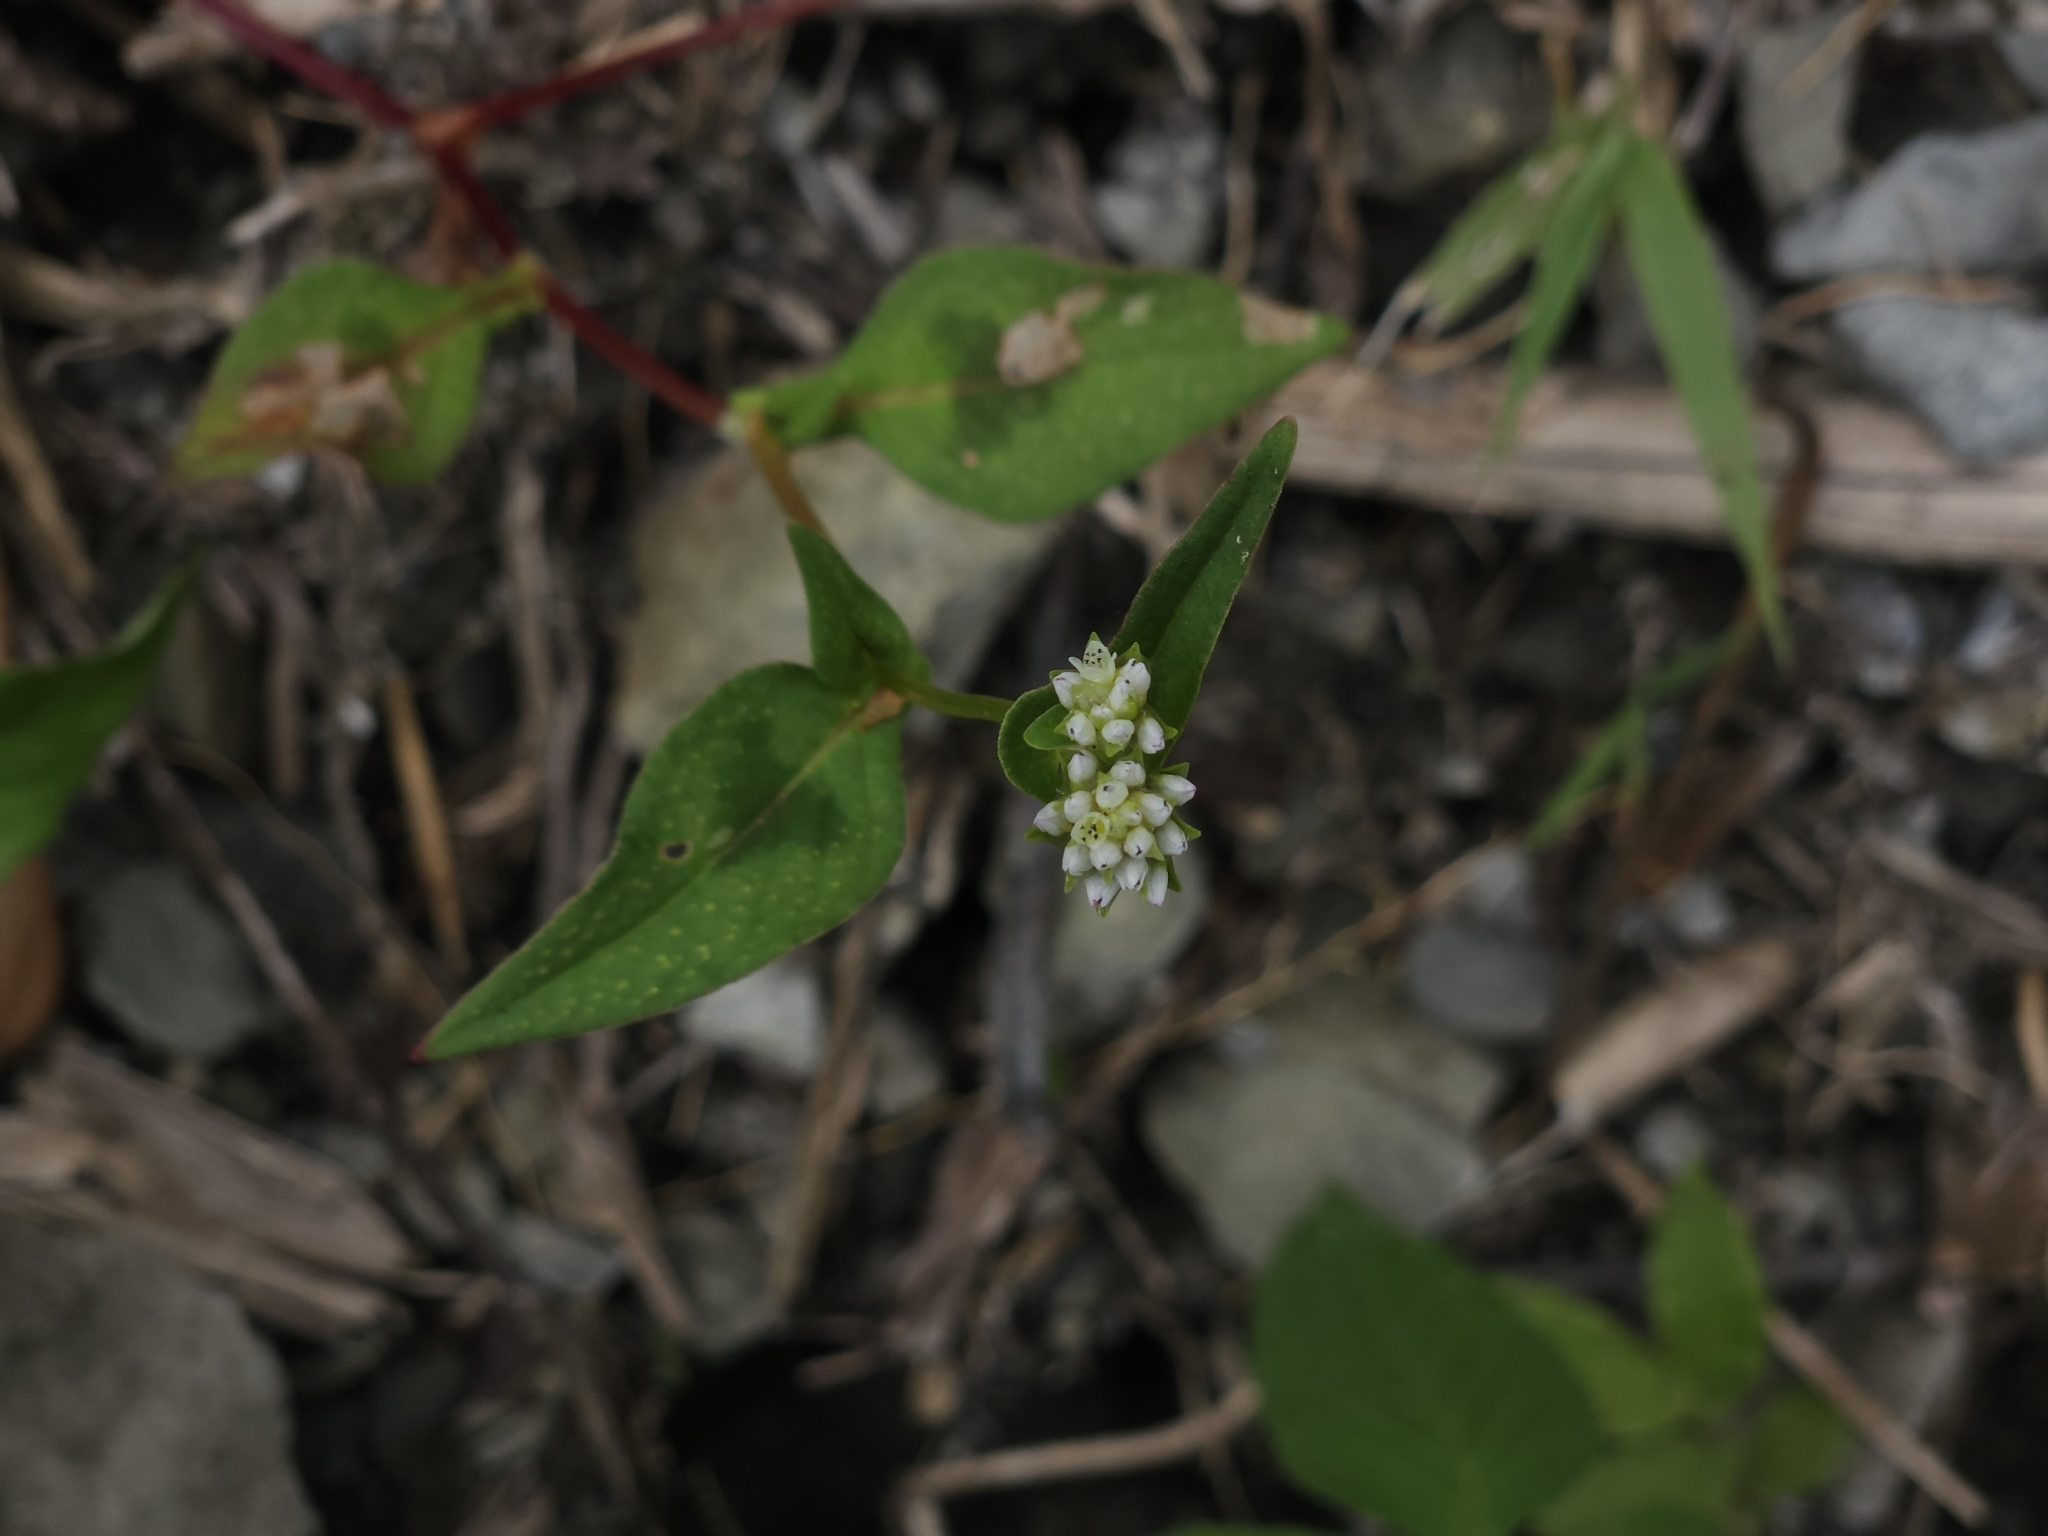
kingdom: Plantae
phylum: Tracheophyta
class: Magnoliopsida
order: Caryophyllales
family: Polygonaceae
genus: Persicaria
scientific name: Persicaria nepalensis
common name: Nepal persicaria
